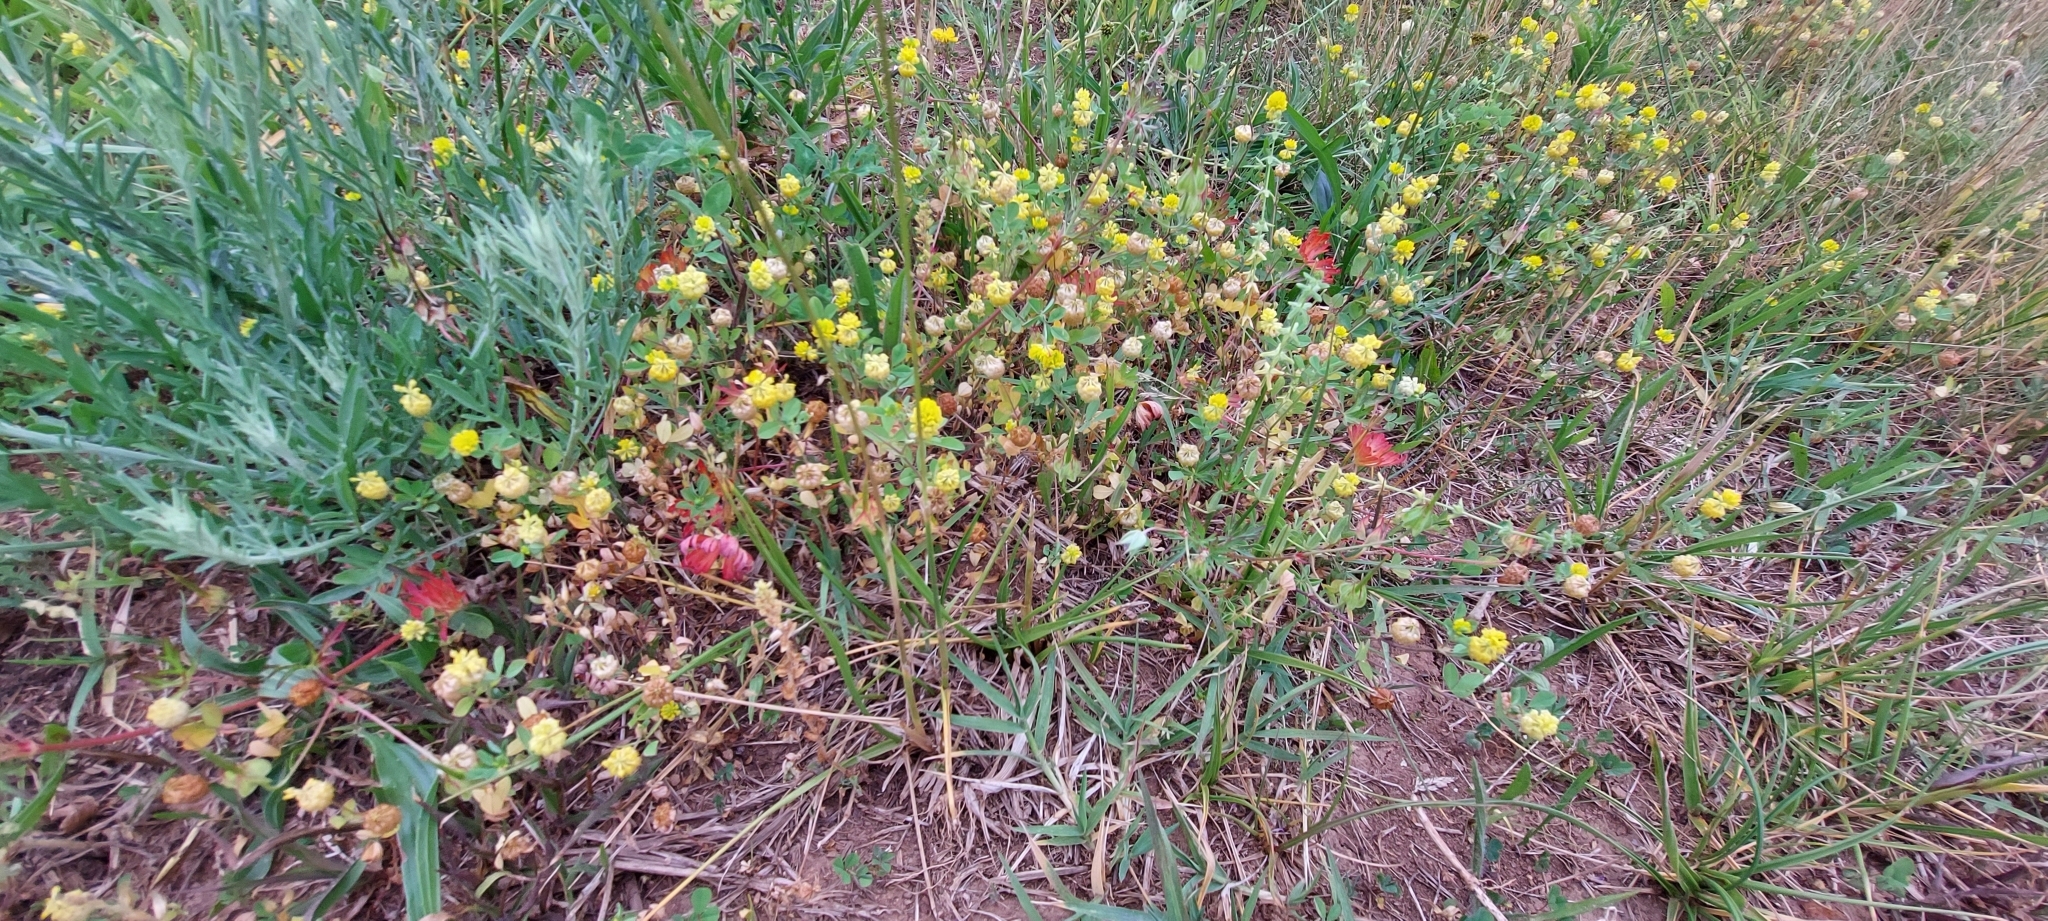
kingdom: Plantae
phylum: Tracheophyta
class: Magnoliopsida
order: Fabales
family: Fabaceae
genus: Trifolium
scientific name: Trifolium campestre
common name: Field clover
